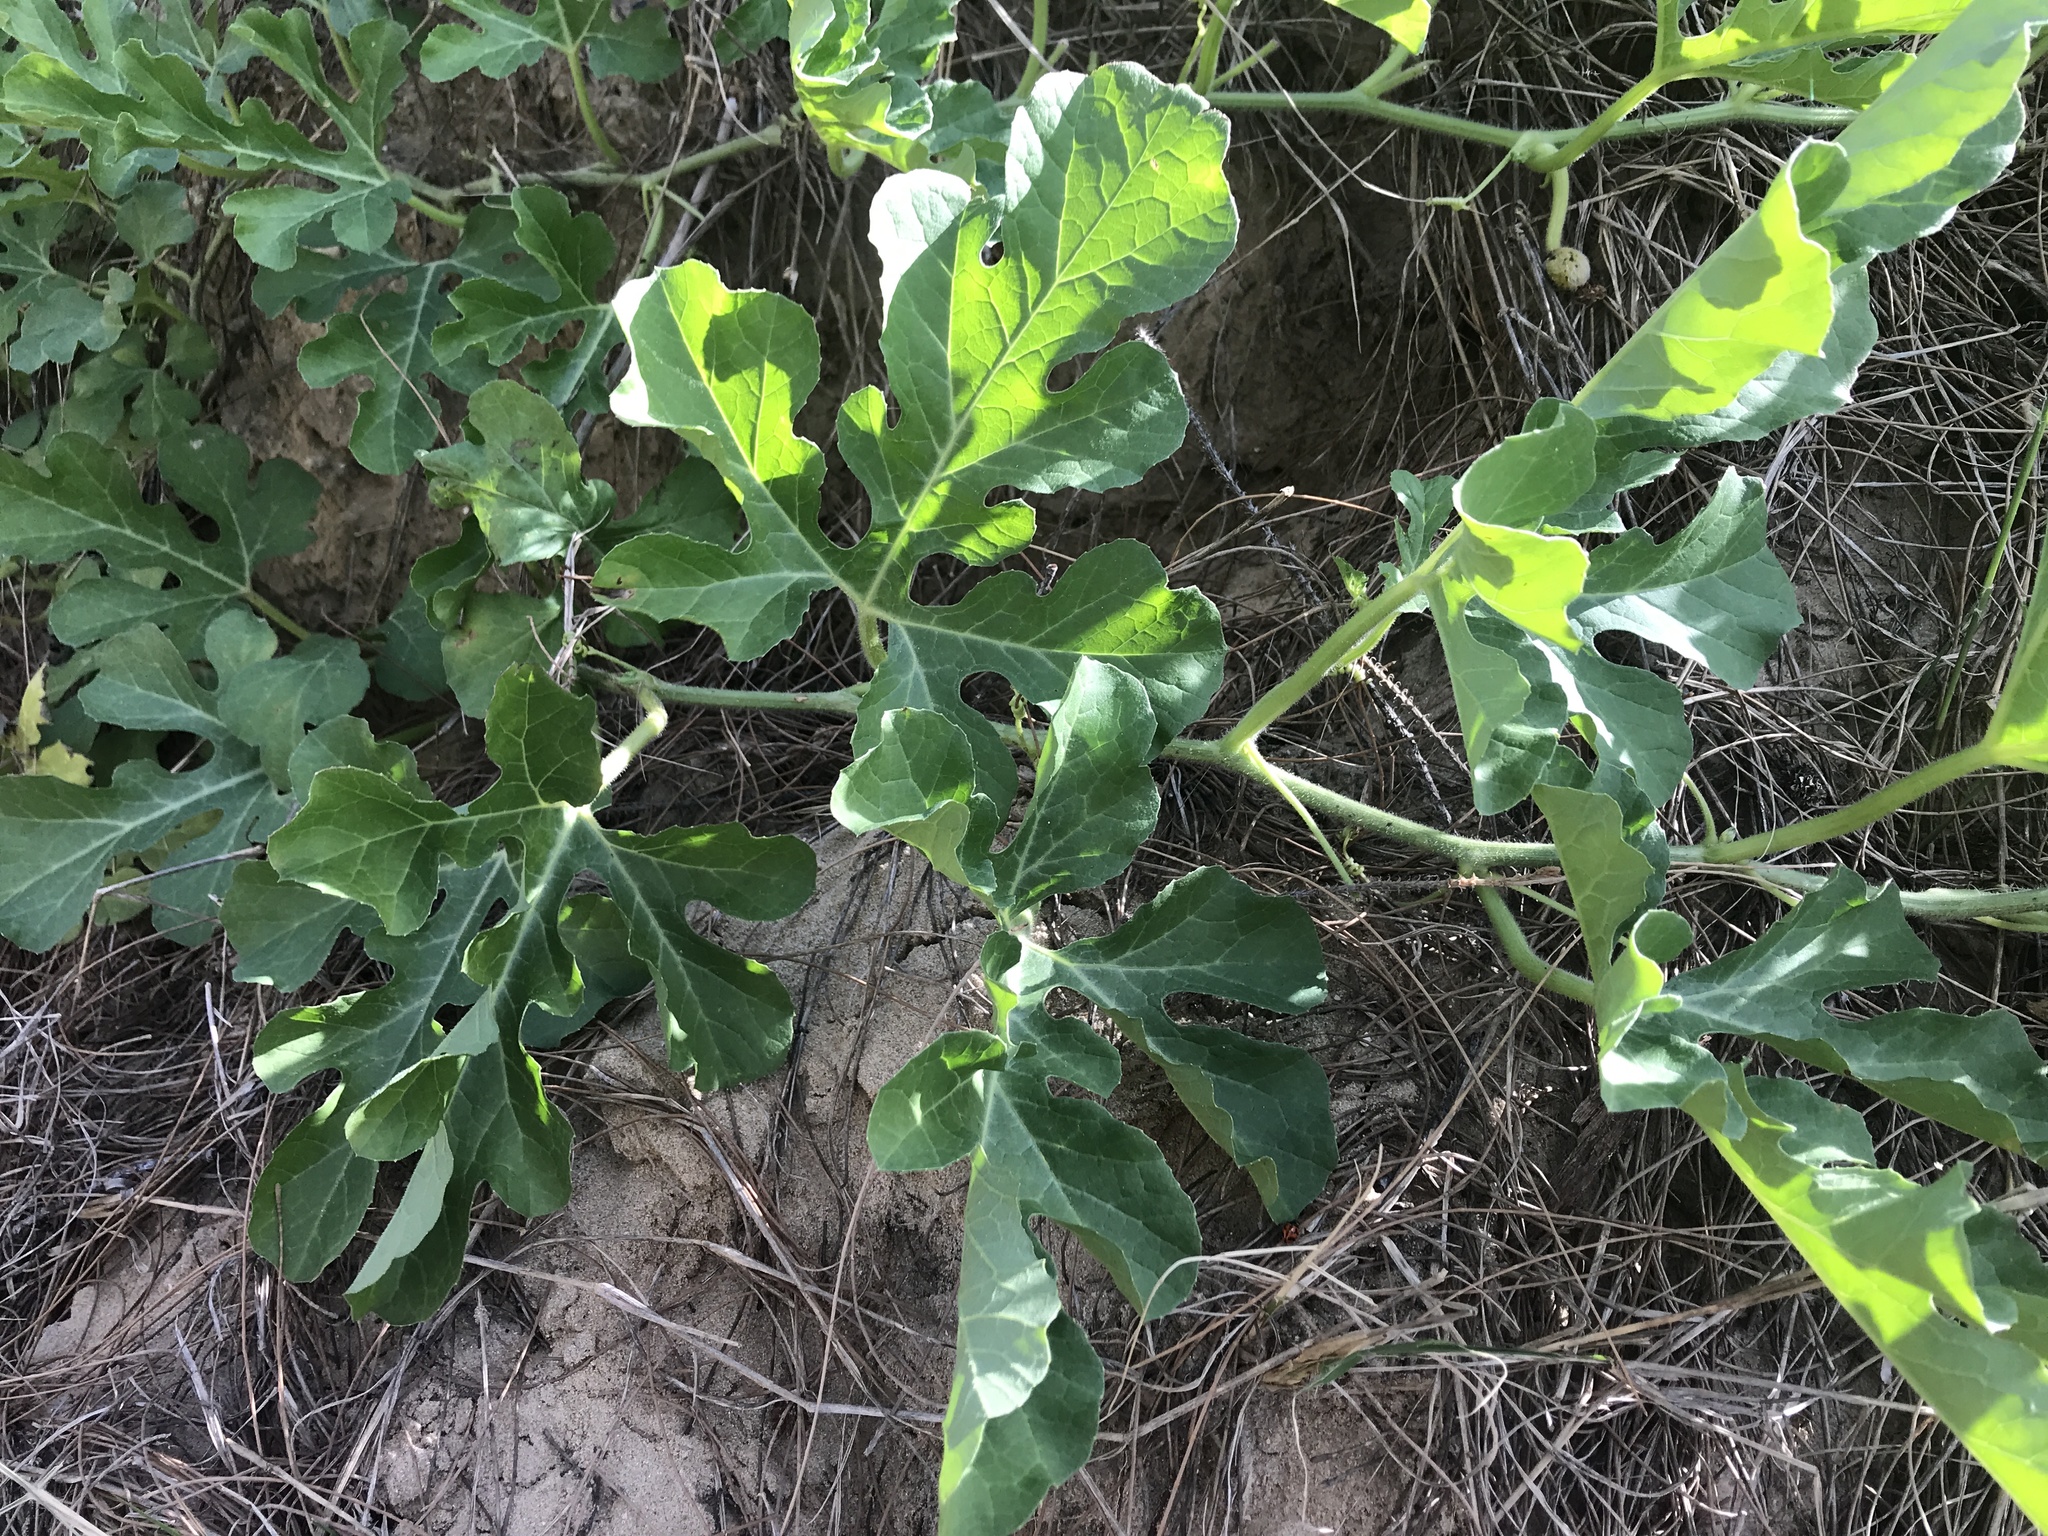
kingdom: Plantae
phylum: Tracheophyta
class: Magnoliopsida
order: Cucurbitales
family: Cucurbitaceae
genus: Citrullus
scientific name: Citrullus lanatus
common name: Watermelon
